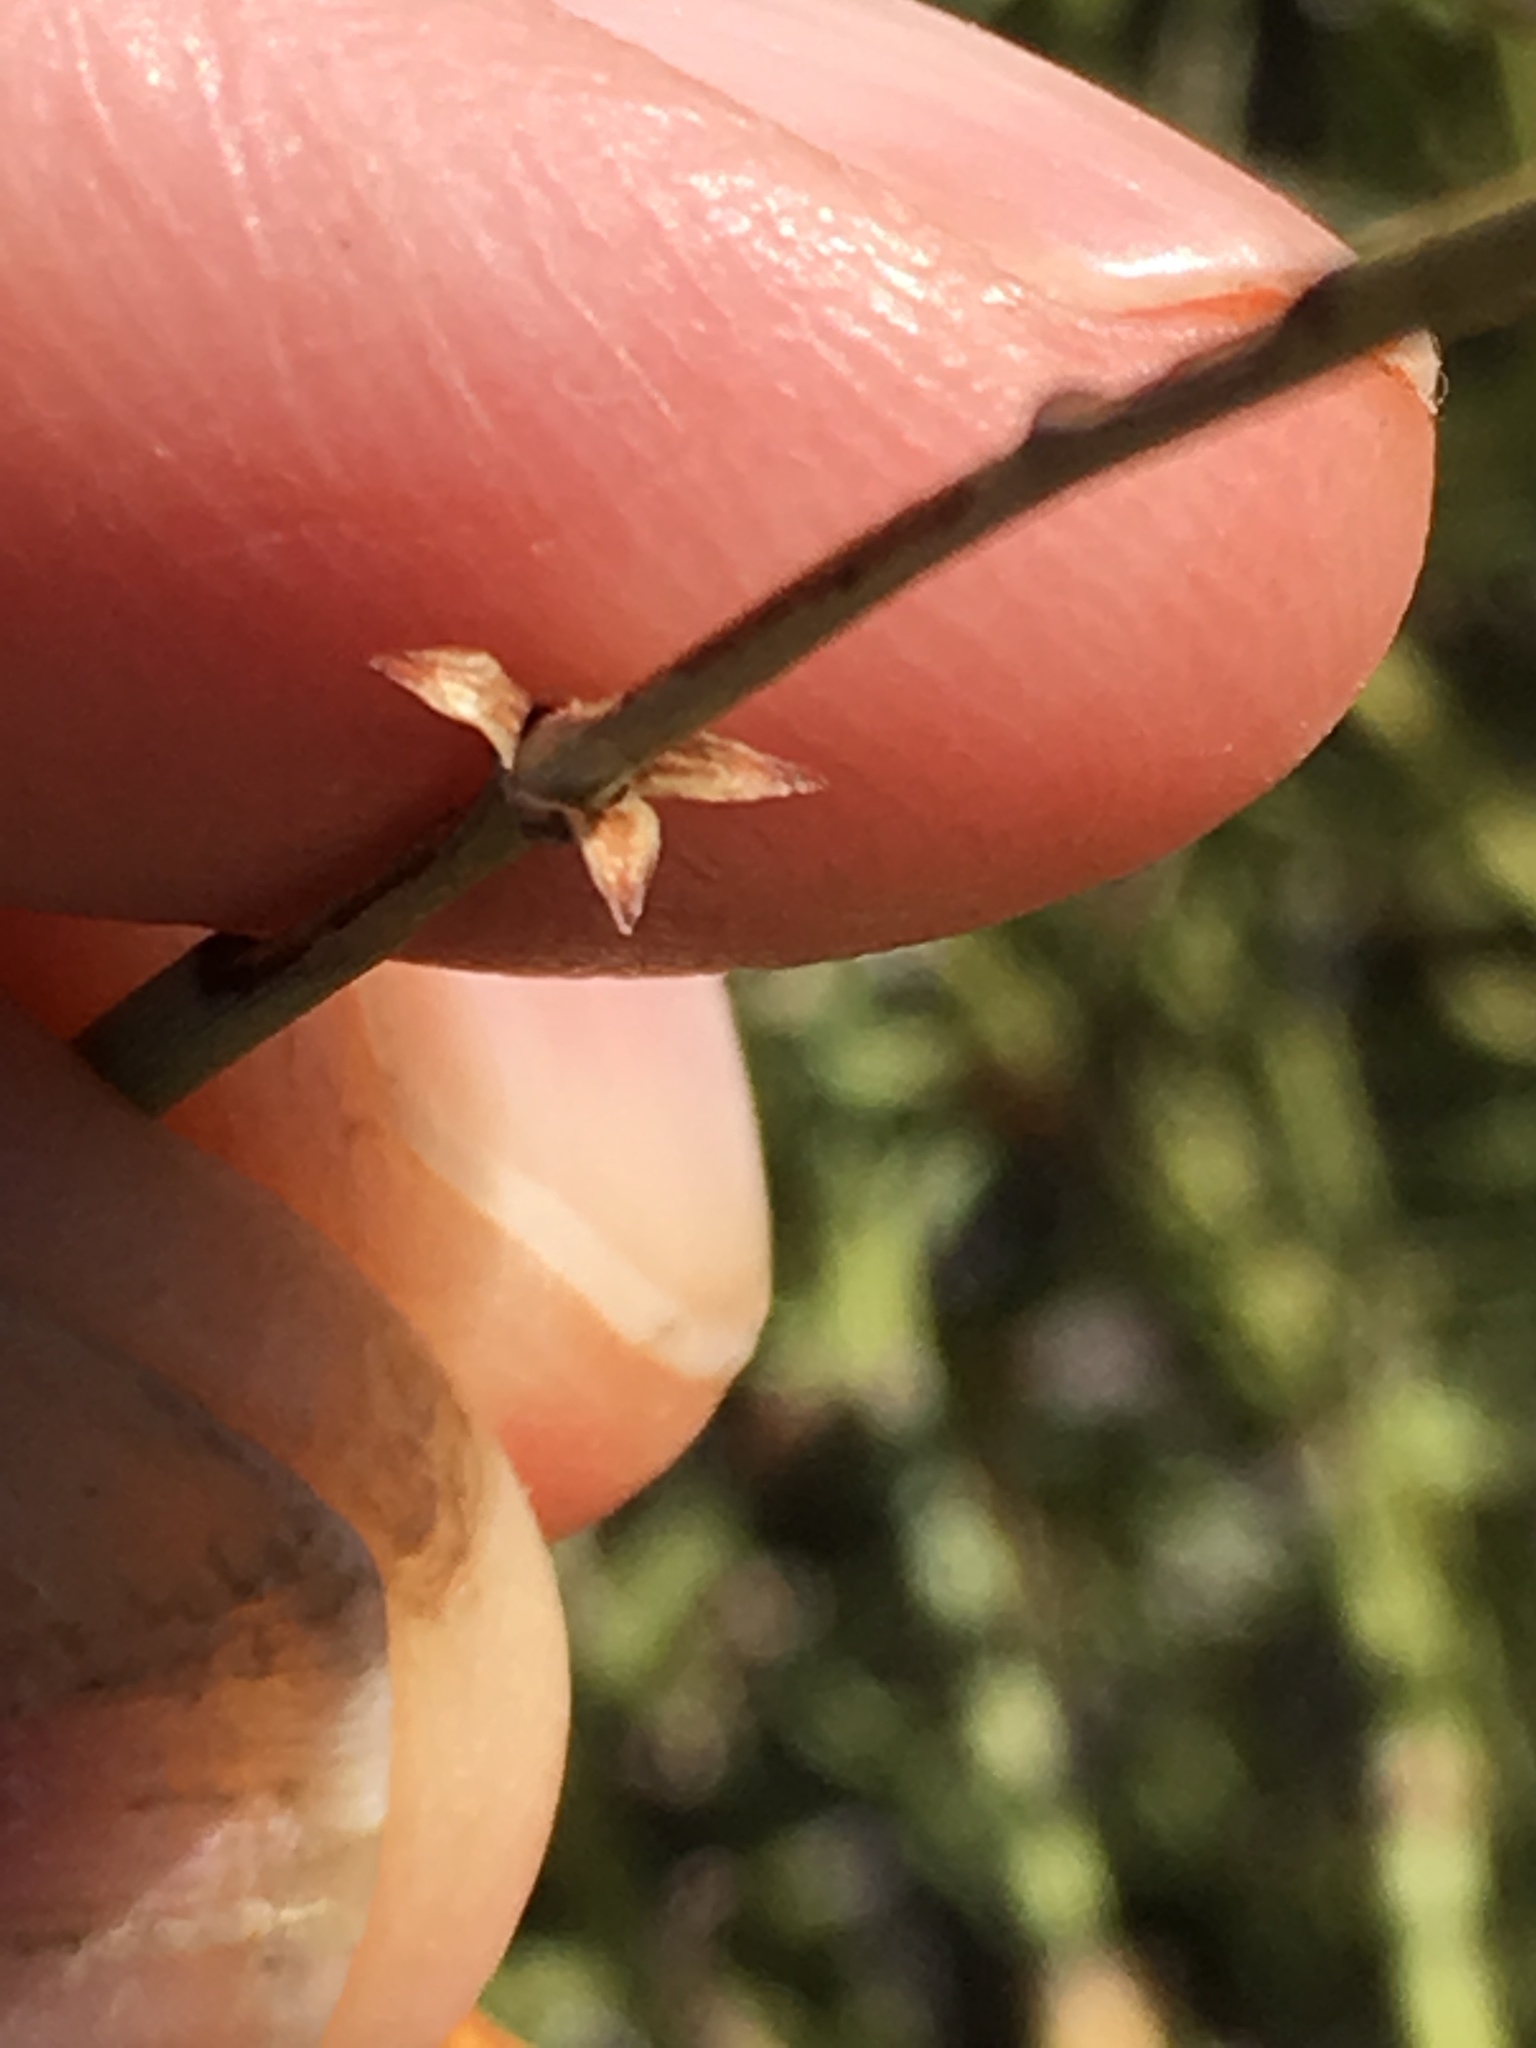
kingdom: Plantae
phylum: Tracheophyta
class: Gnetopsida
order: Ephedrales
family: Ephedraceae
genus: Ephedra
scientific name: Ephedra californica
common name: California ephedra
